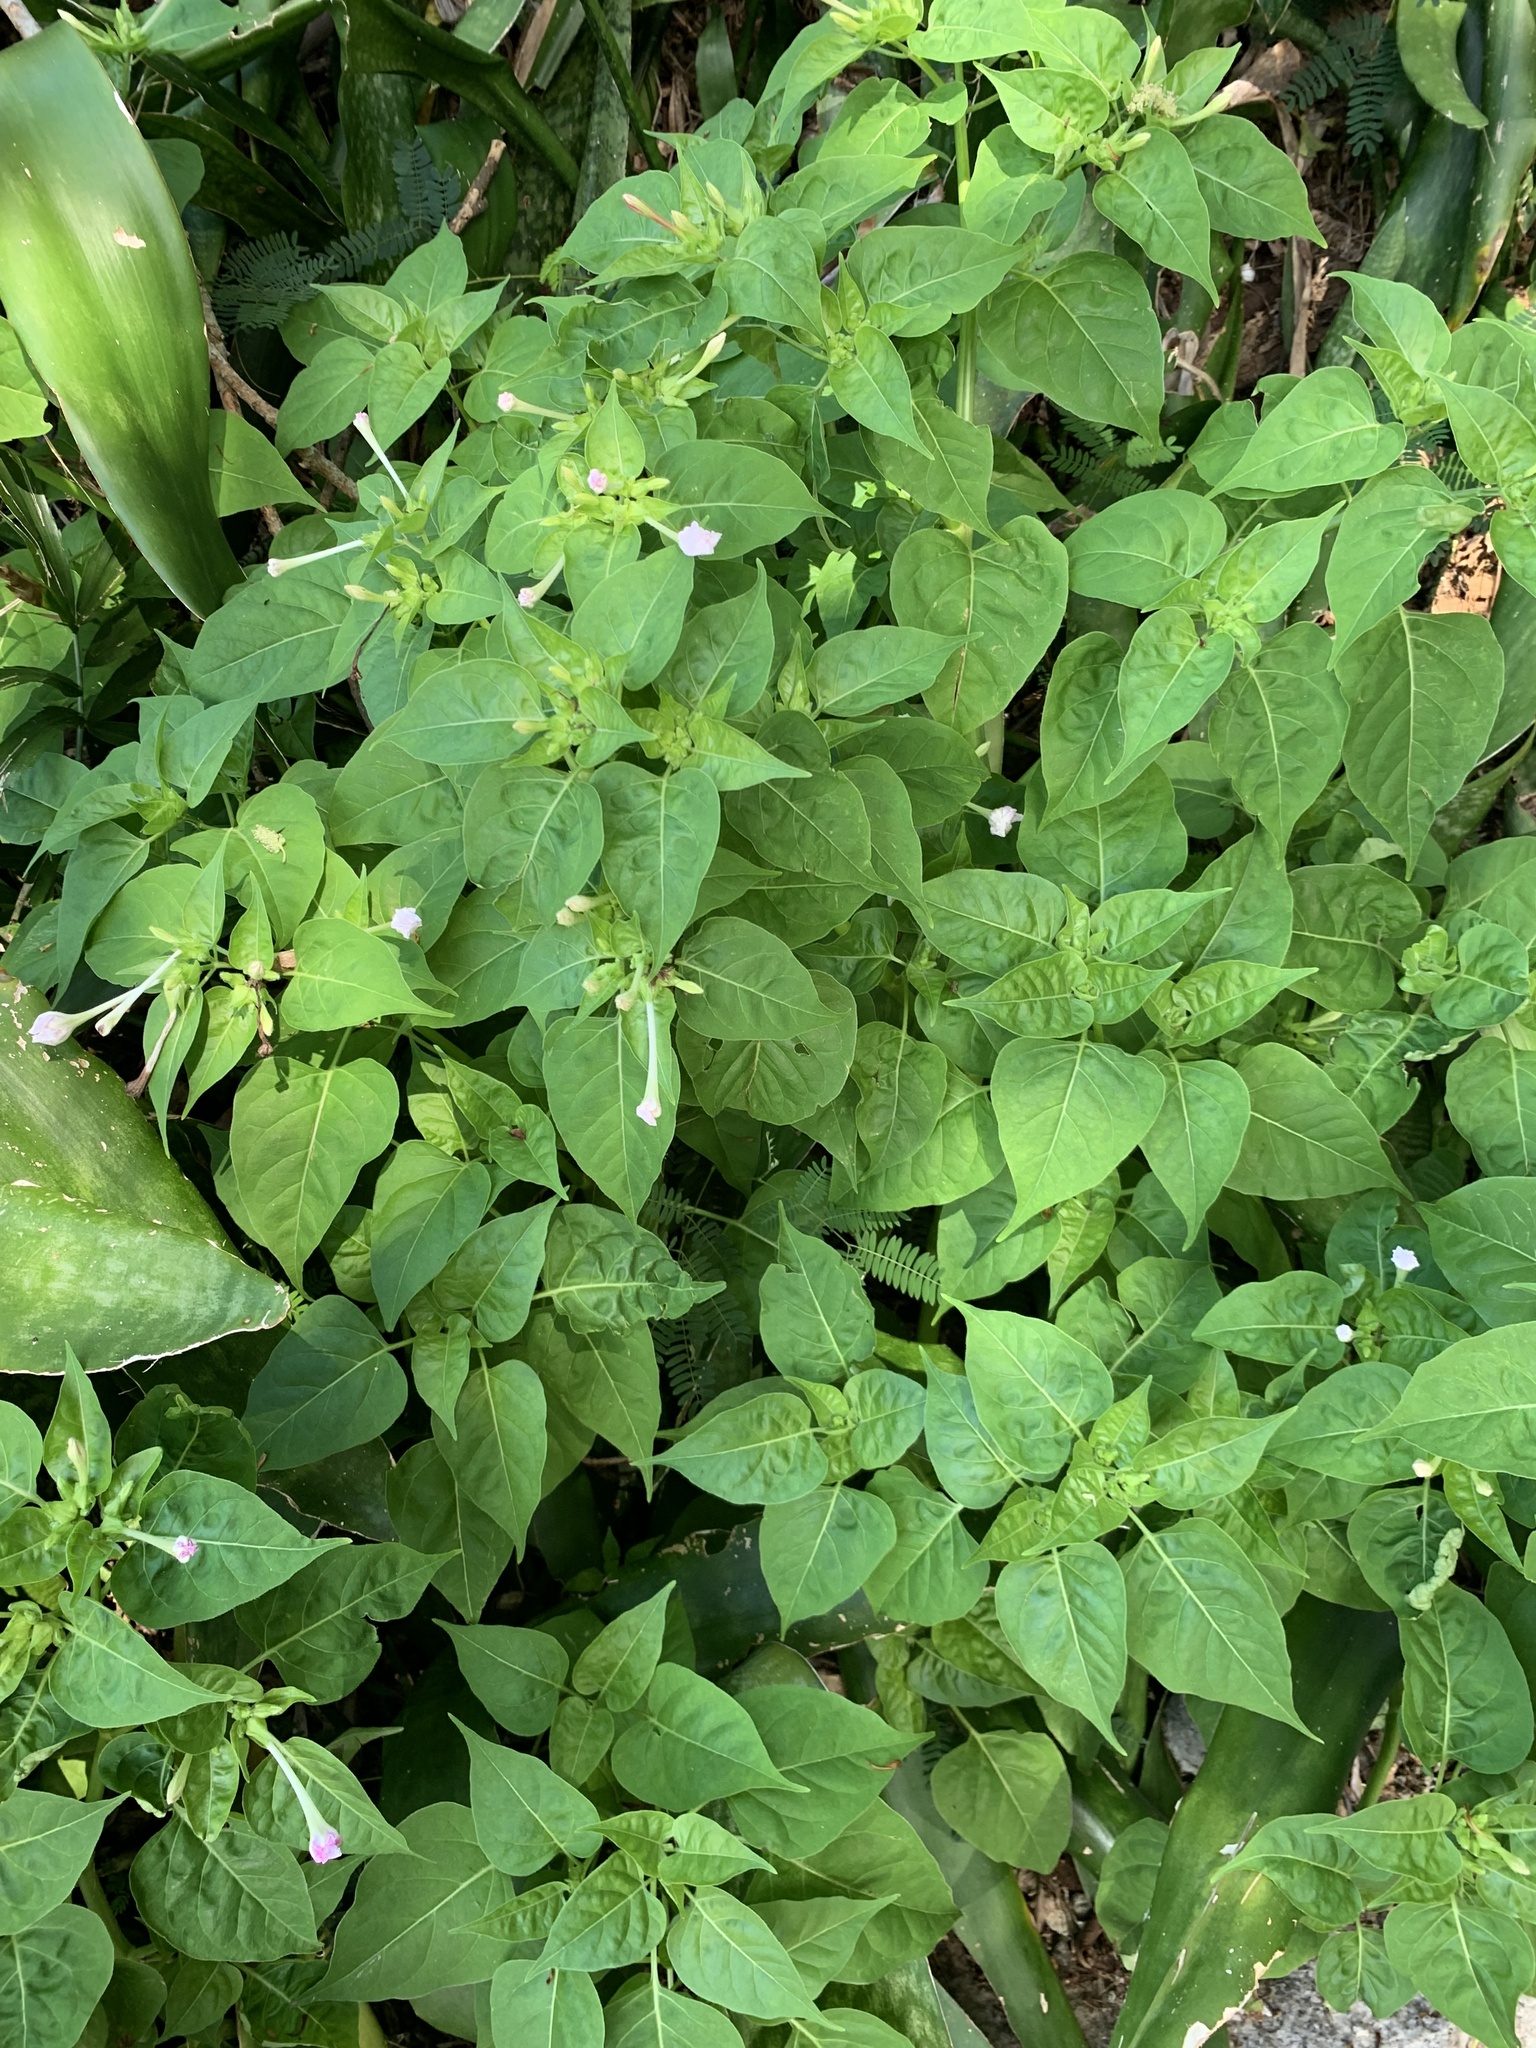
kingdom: Plantae
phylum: Tracheophyta
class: Magnoliopsida
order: Caryophyllales
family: Nyctaginaceae
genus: Mirabilis
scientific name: Mirabilis jalapa
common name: Marvel-of-peru
